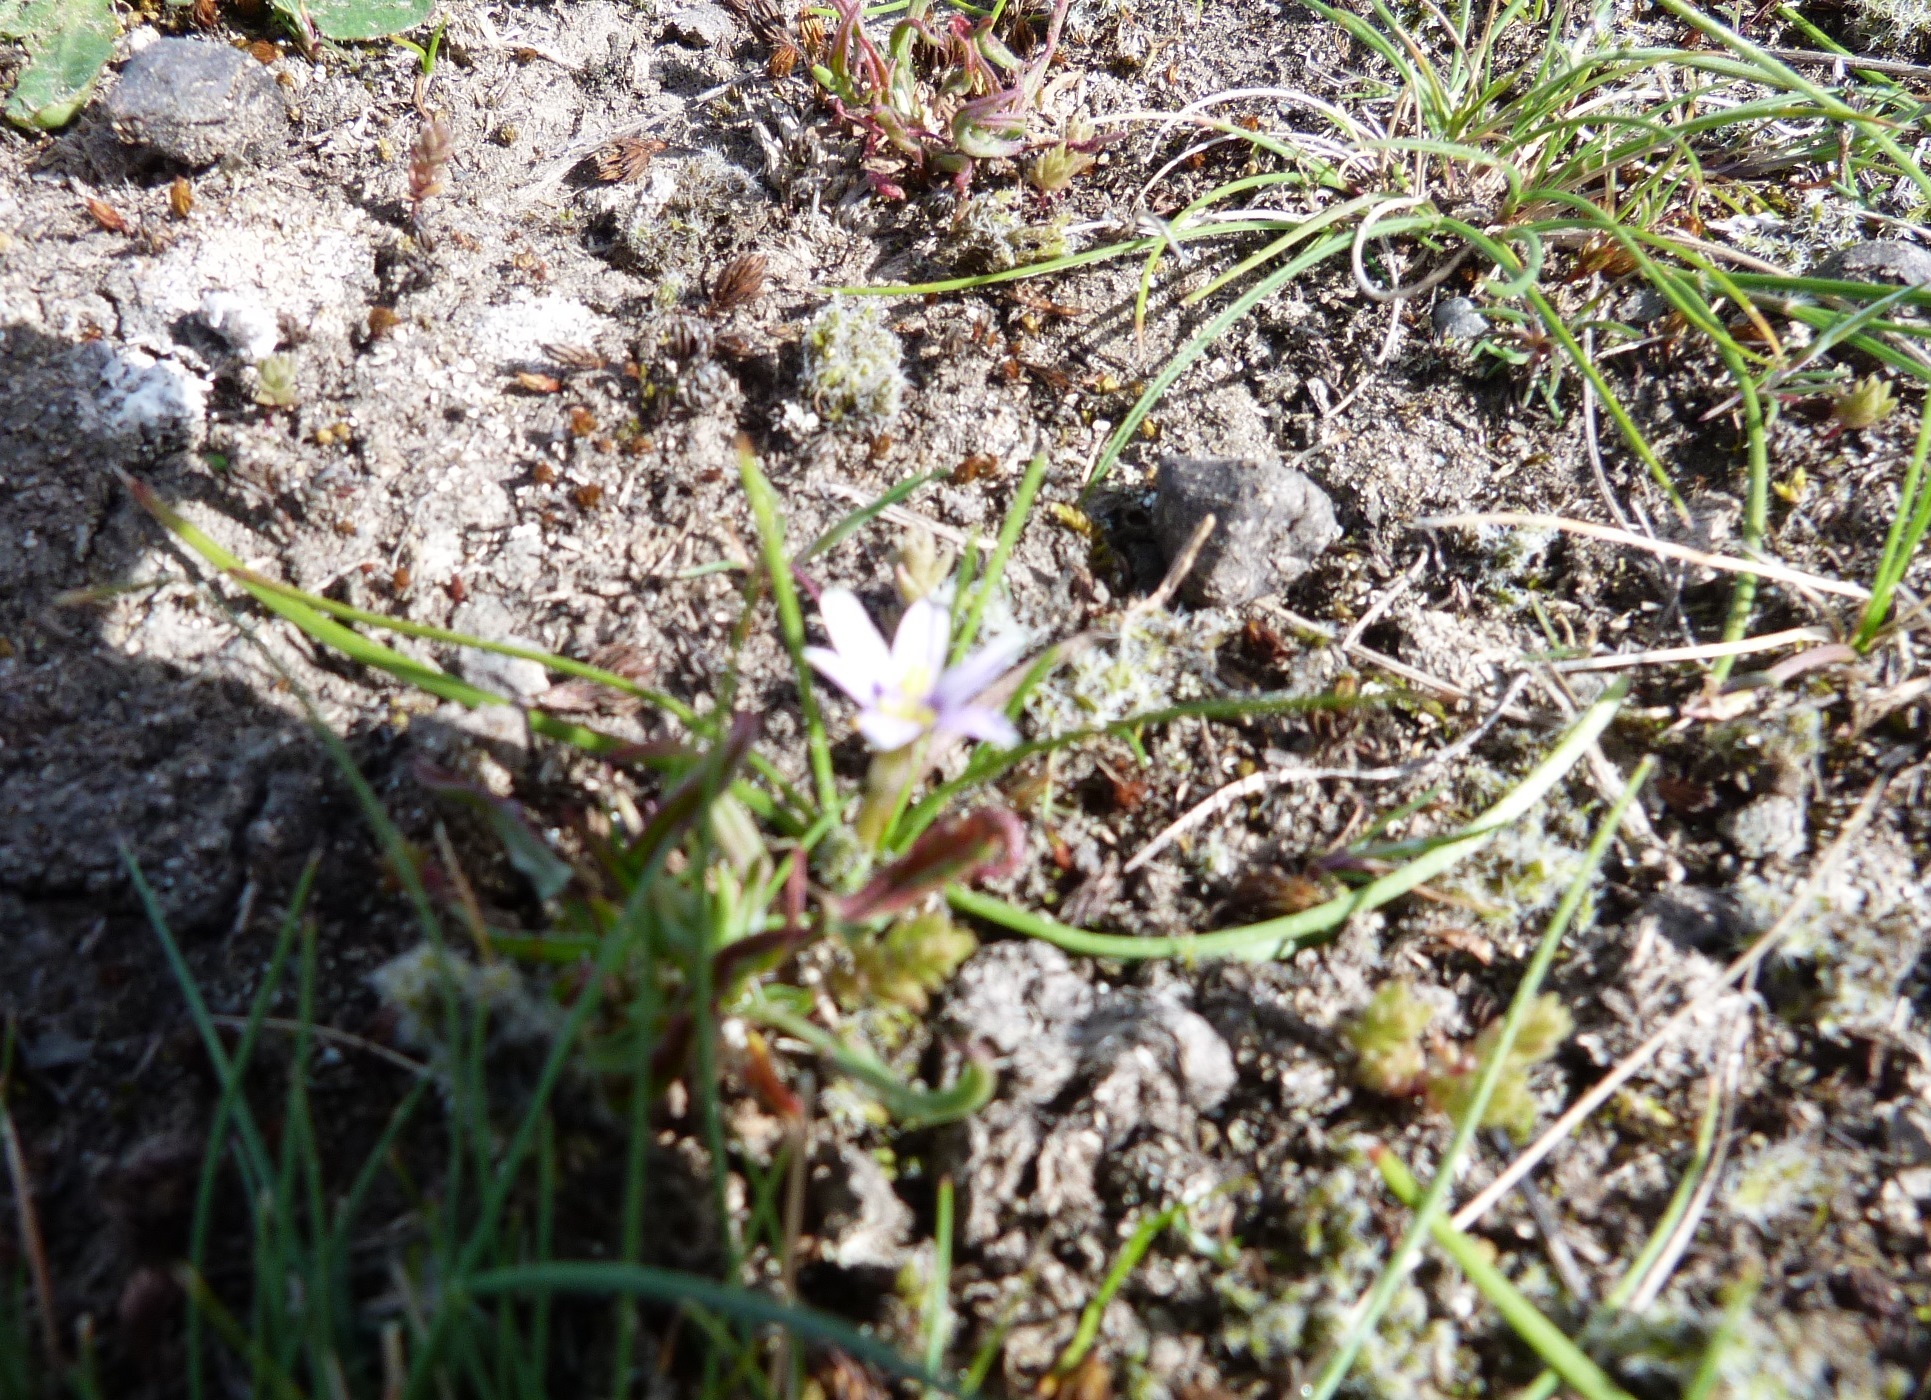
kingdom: Plantae
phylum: Tracheophyta
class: Liliopsida
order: Asparagales
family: Iridaceae
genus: Romulea
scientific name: Romulea minutiflora
